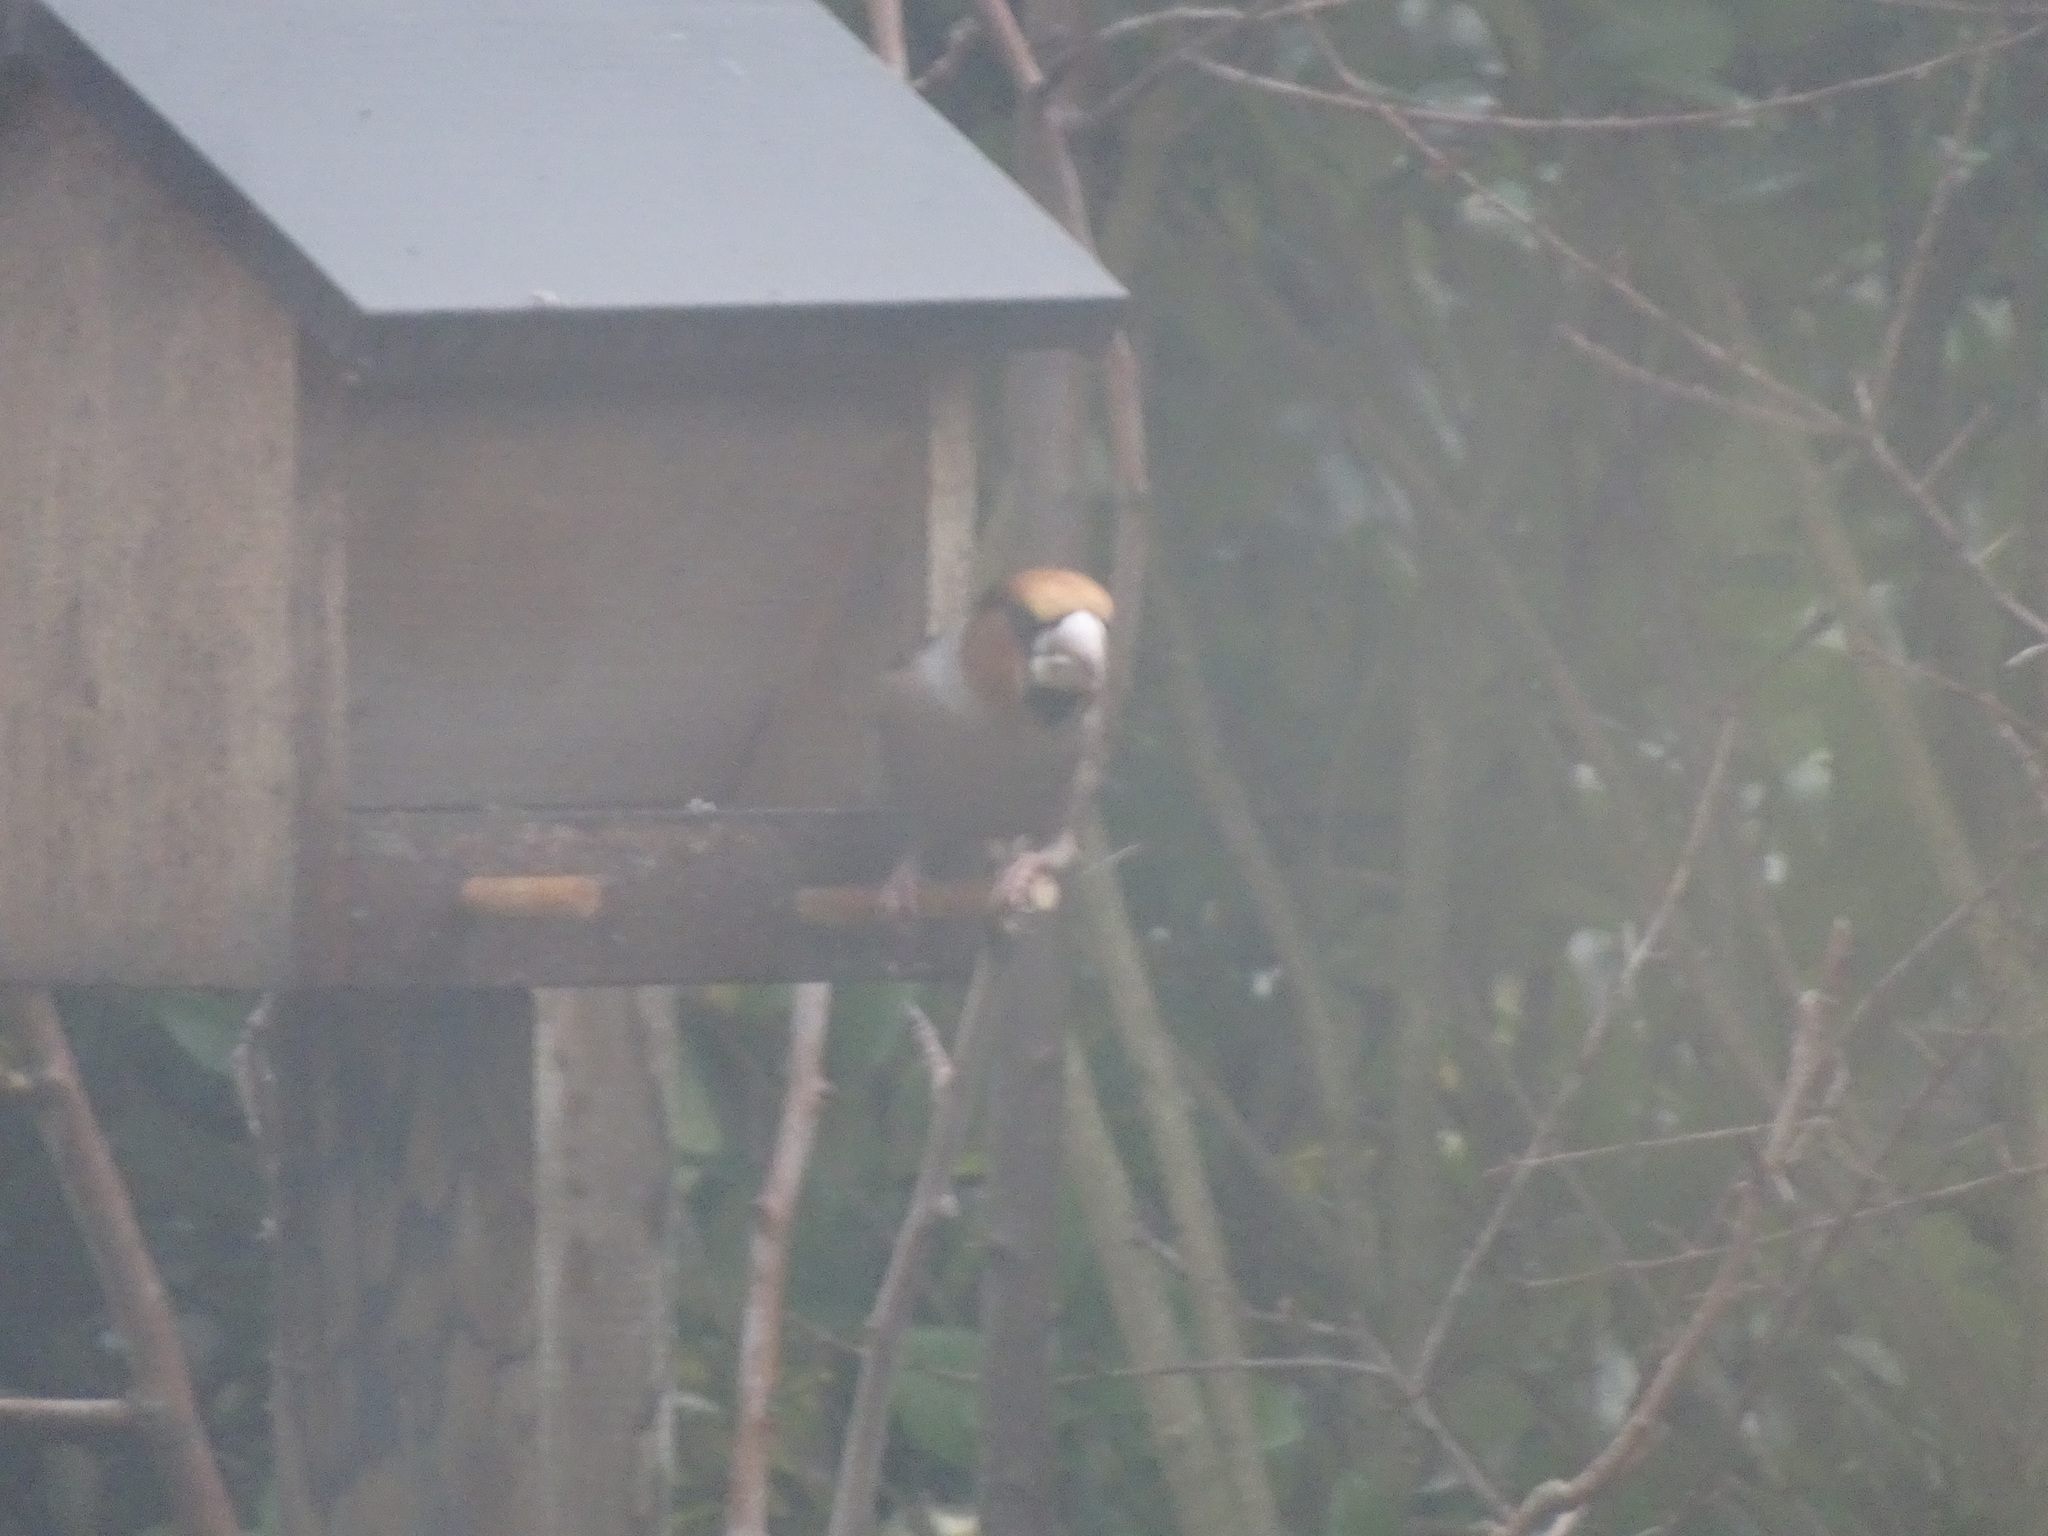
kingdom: Animalia
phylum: Chordata
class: Aves
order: Passeriformes
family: Fringillidae
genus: Coccothraustes
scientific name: Coccothraustes coccothraustes
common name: Hawfinch
